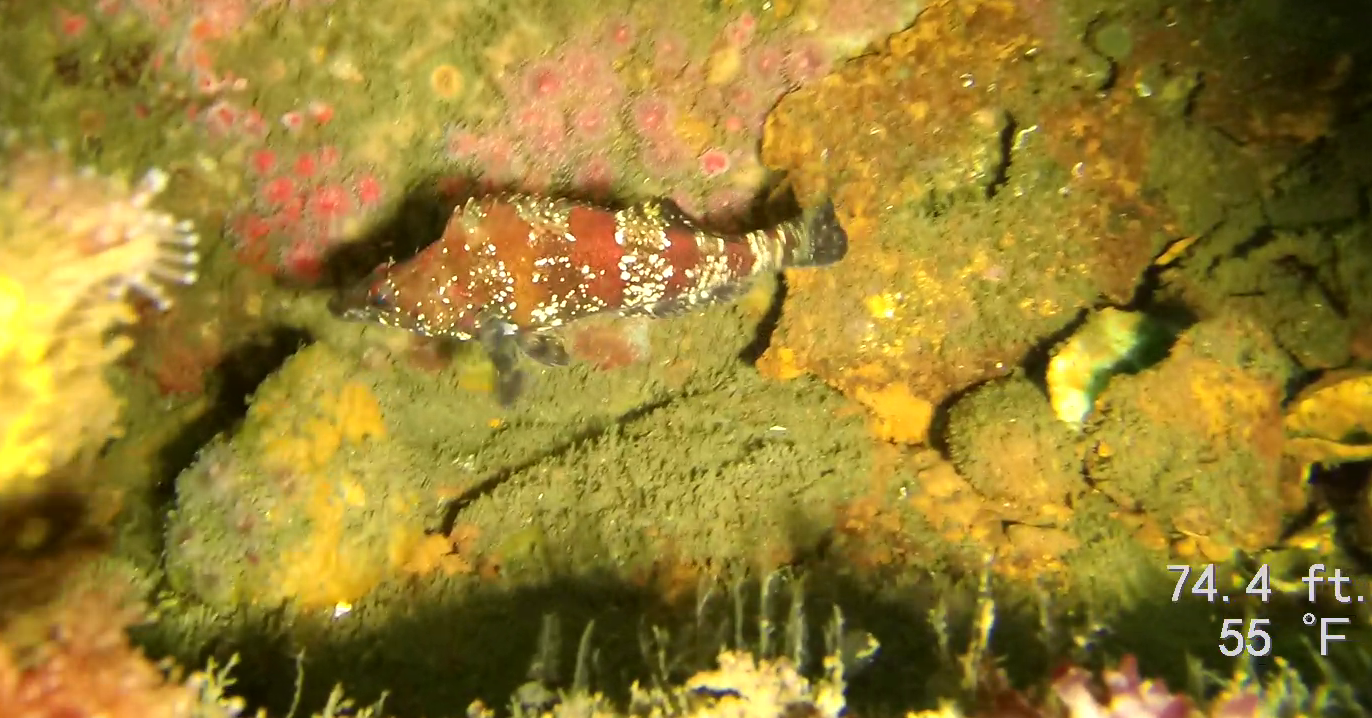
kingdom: Animalia
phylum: Chordata
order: Scorpaeniformes
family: Hexagrammidae
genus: Oxylebius
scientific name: Oxylebius pictus
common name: Painted greenling
